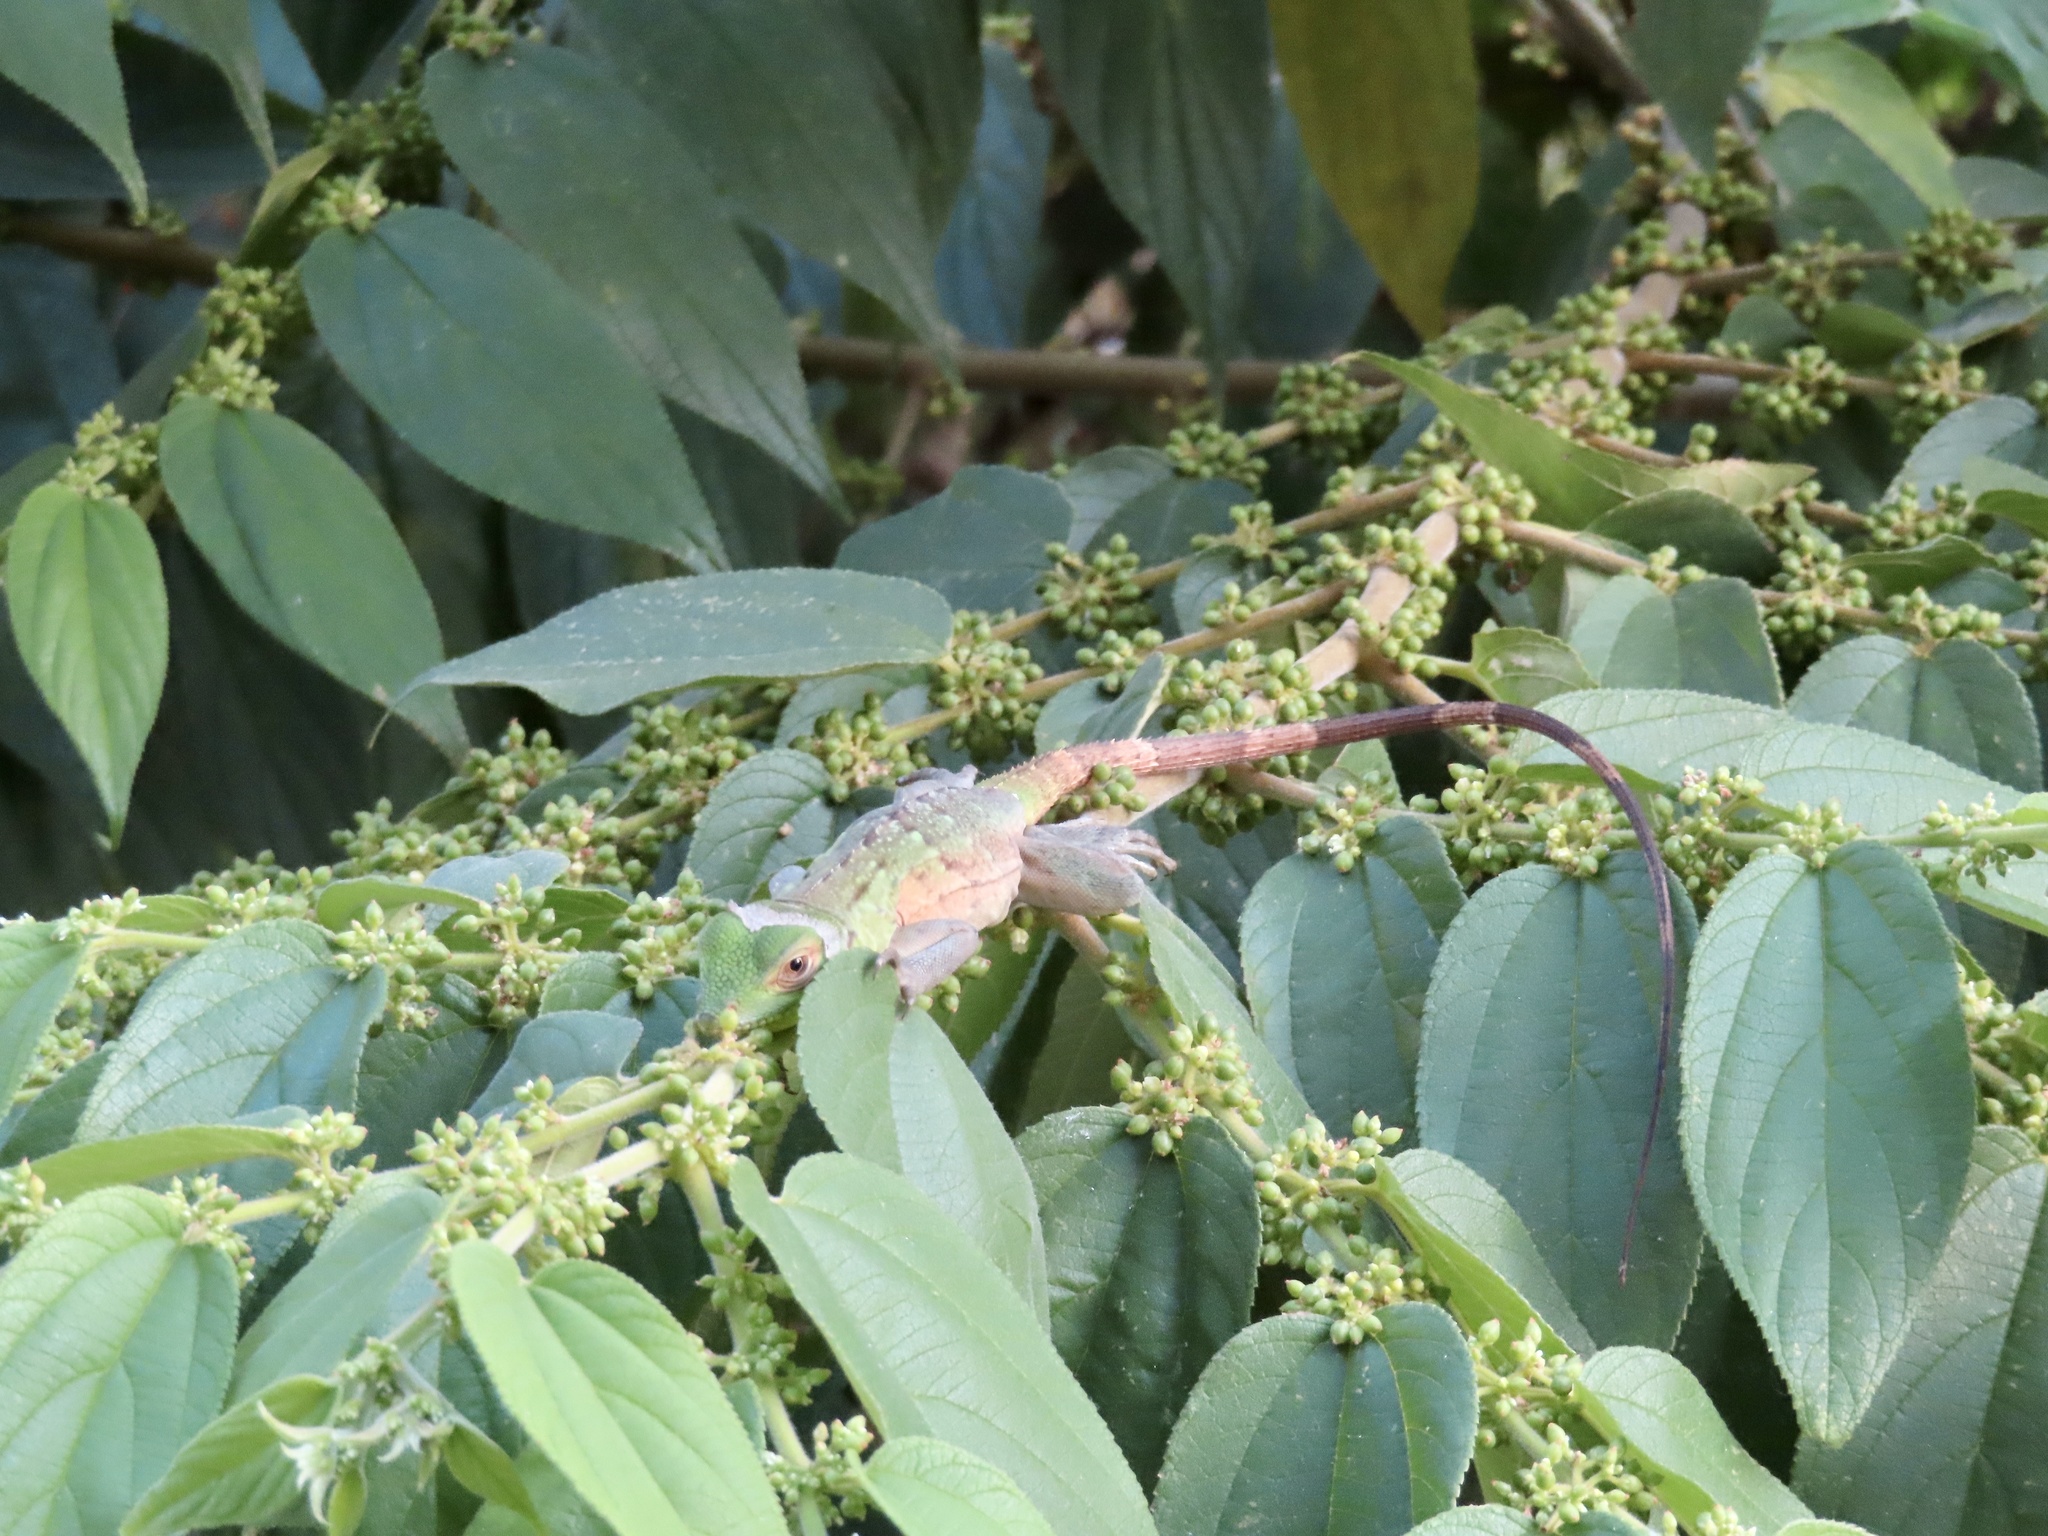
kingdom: Animalia
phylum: Chordata
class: Squamata
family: Iguanidae
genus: Ctenosaura
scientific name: Ctenosaura pectinata
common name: Guerreran spiny-tailed iguana
